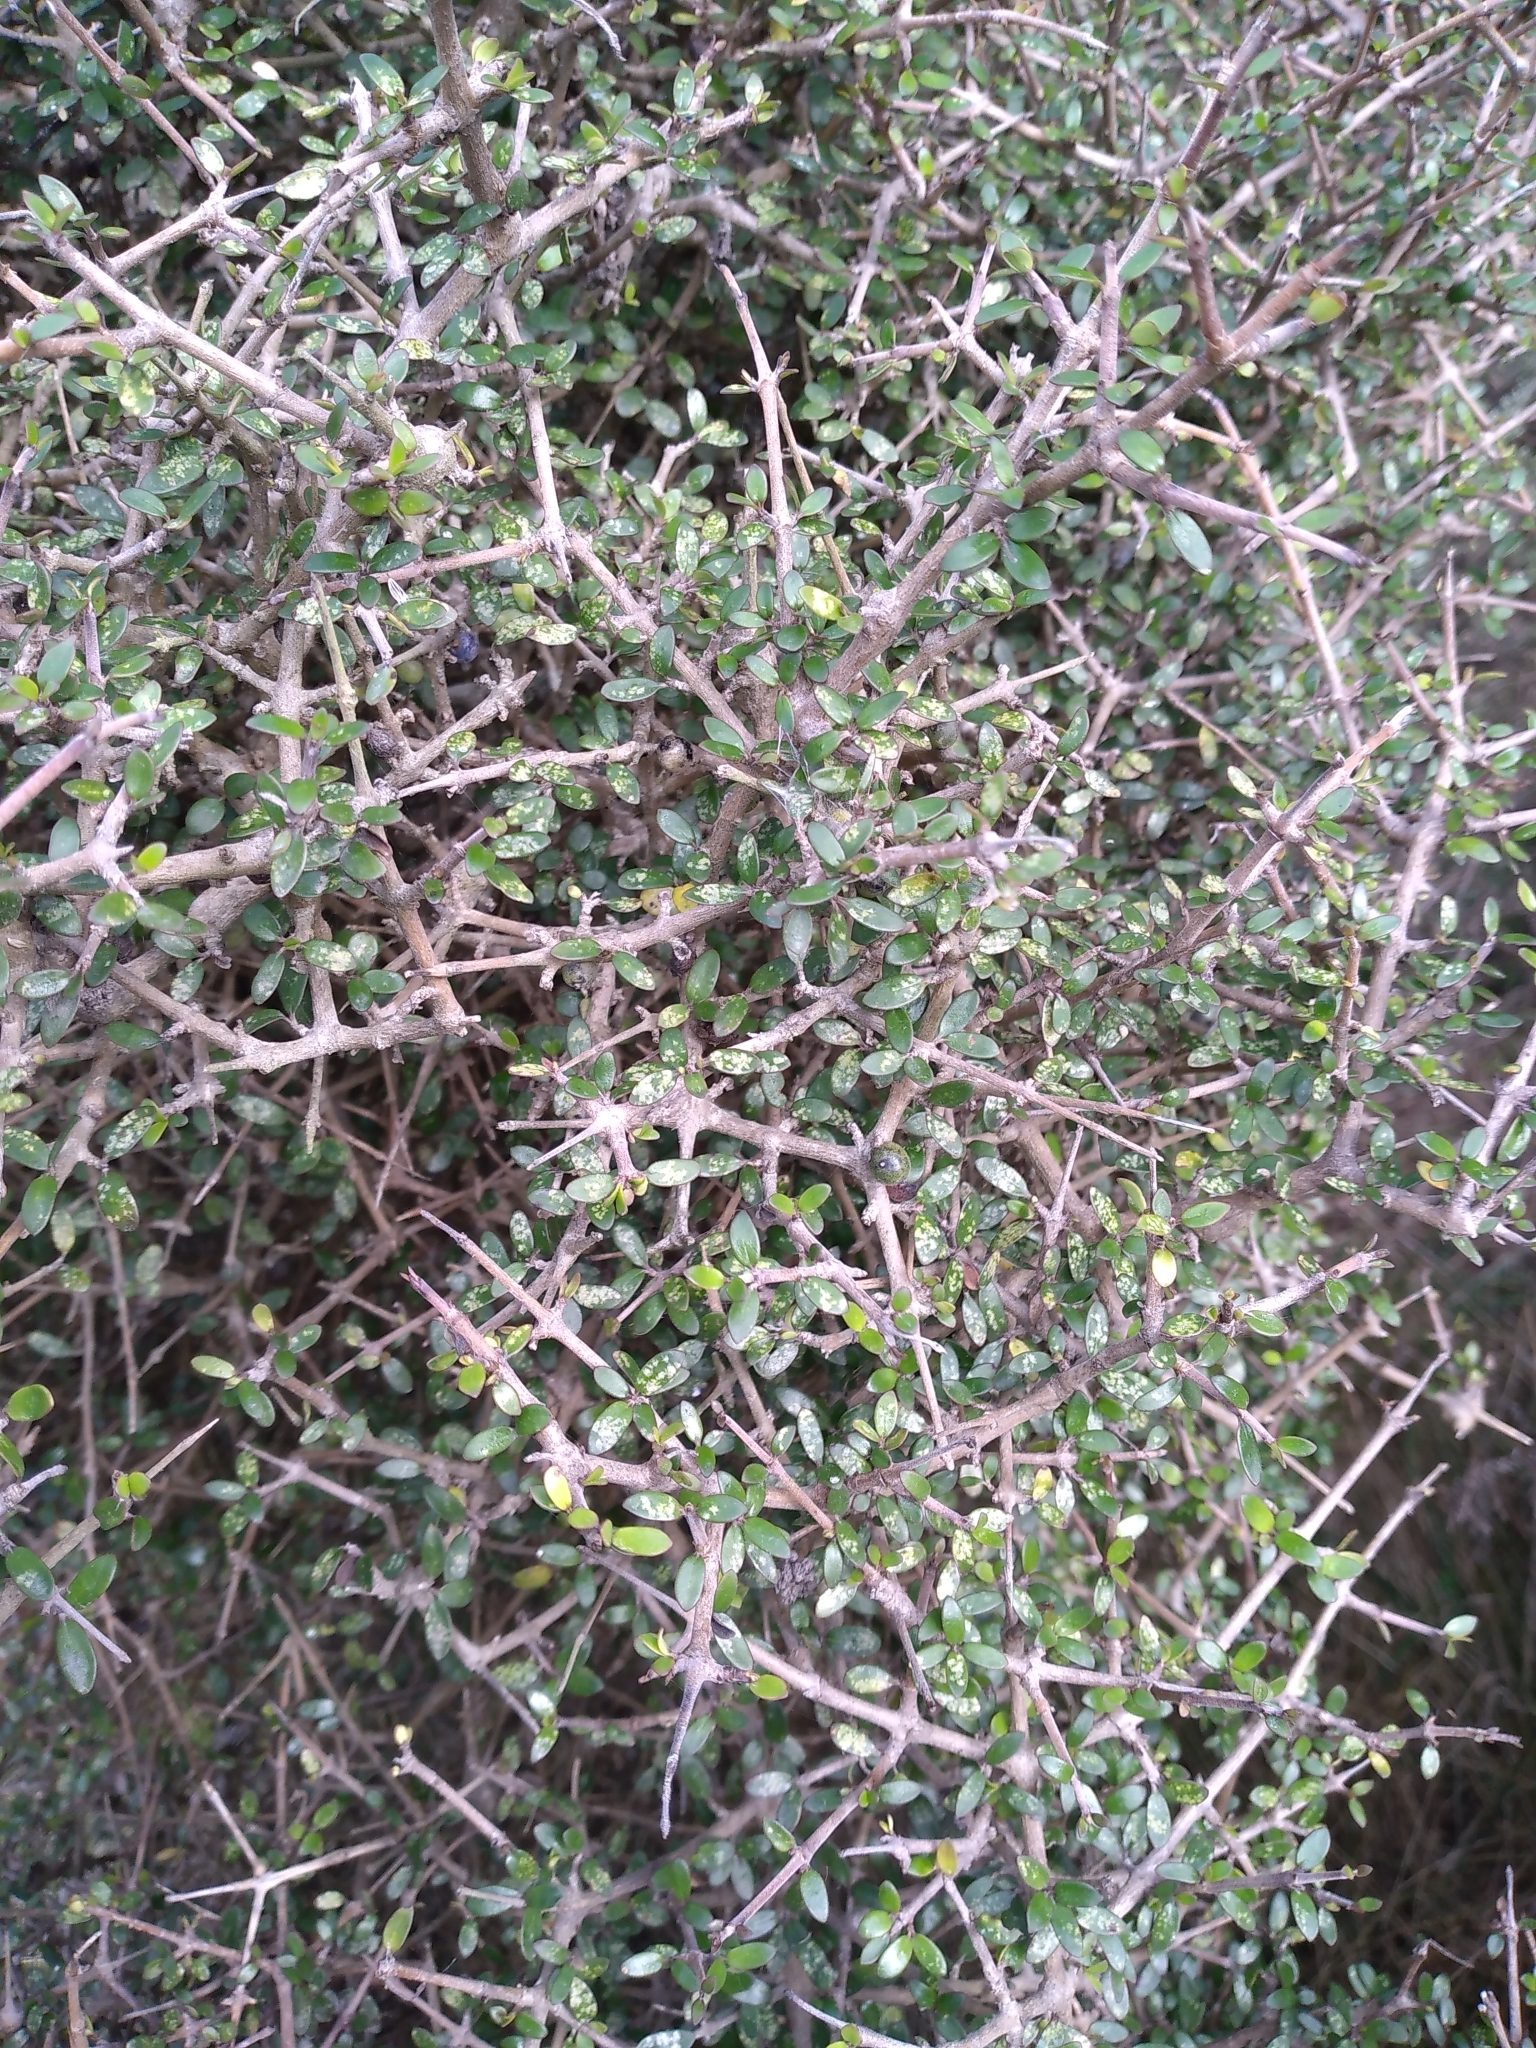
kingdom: Plantae
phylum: Tracheophyta
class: Magnoliopsida
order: Gentianales
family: Rubiaceae
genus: Coprosma
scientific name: Coprosma propinqua
